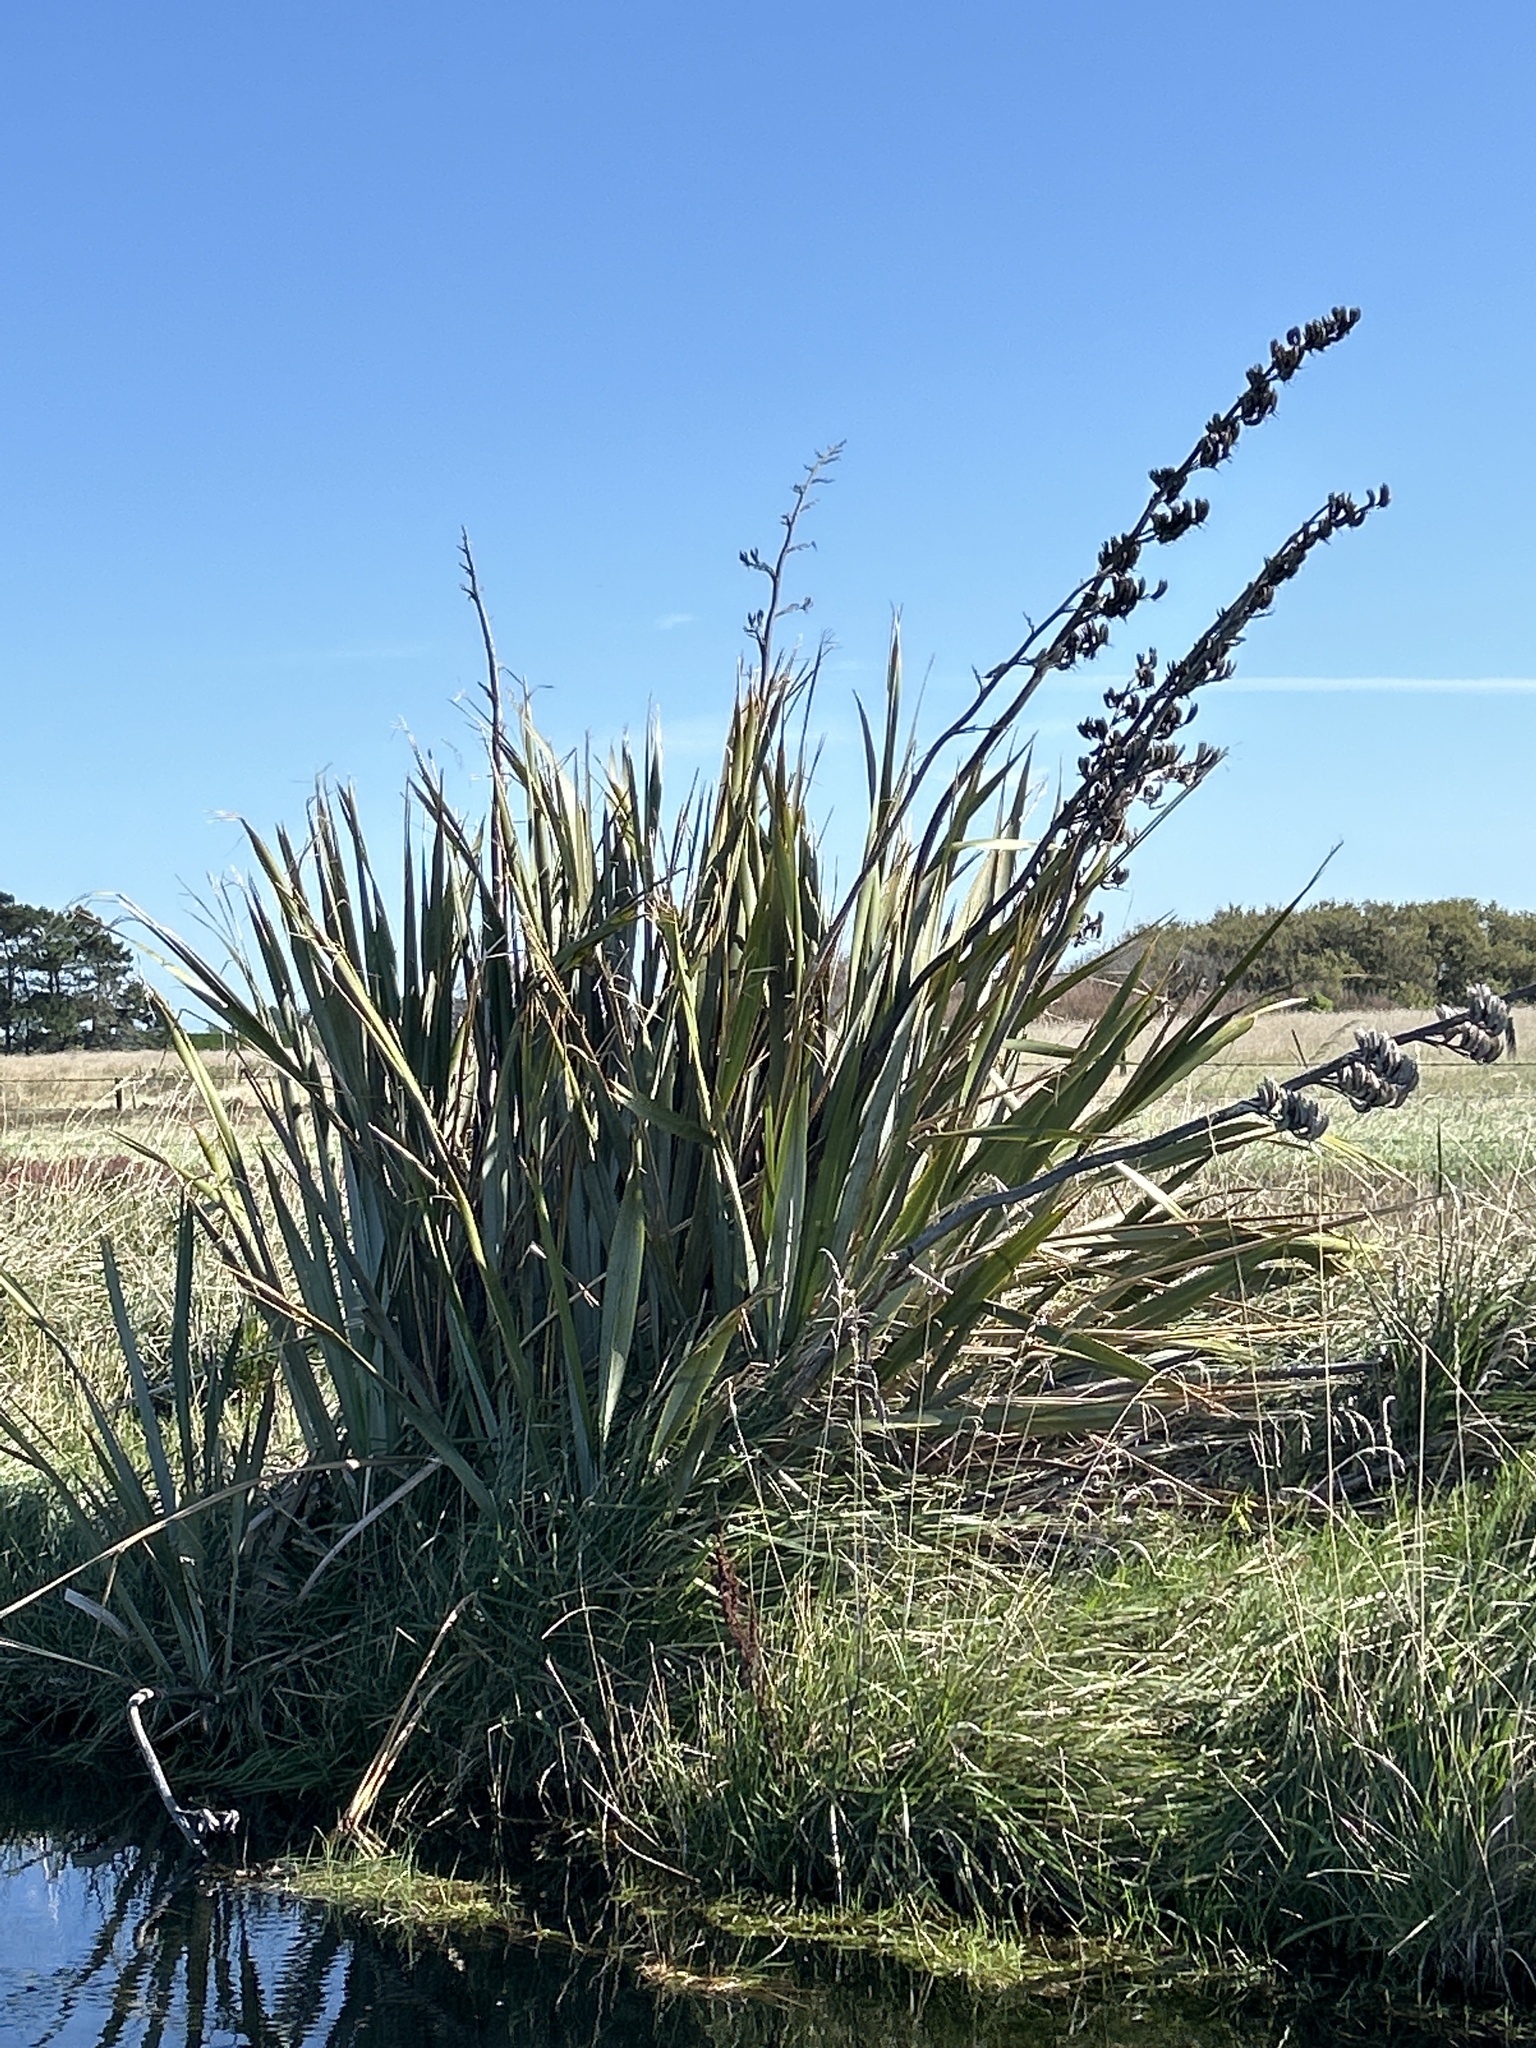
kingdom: Plantae
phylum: Tracheophyta
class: Liliopsida
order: Asparagales
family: Asphodelaceae
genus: Phormium
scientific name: Phormium tenax
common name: New zealand flax
